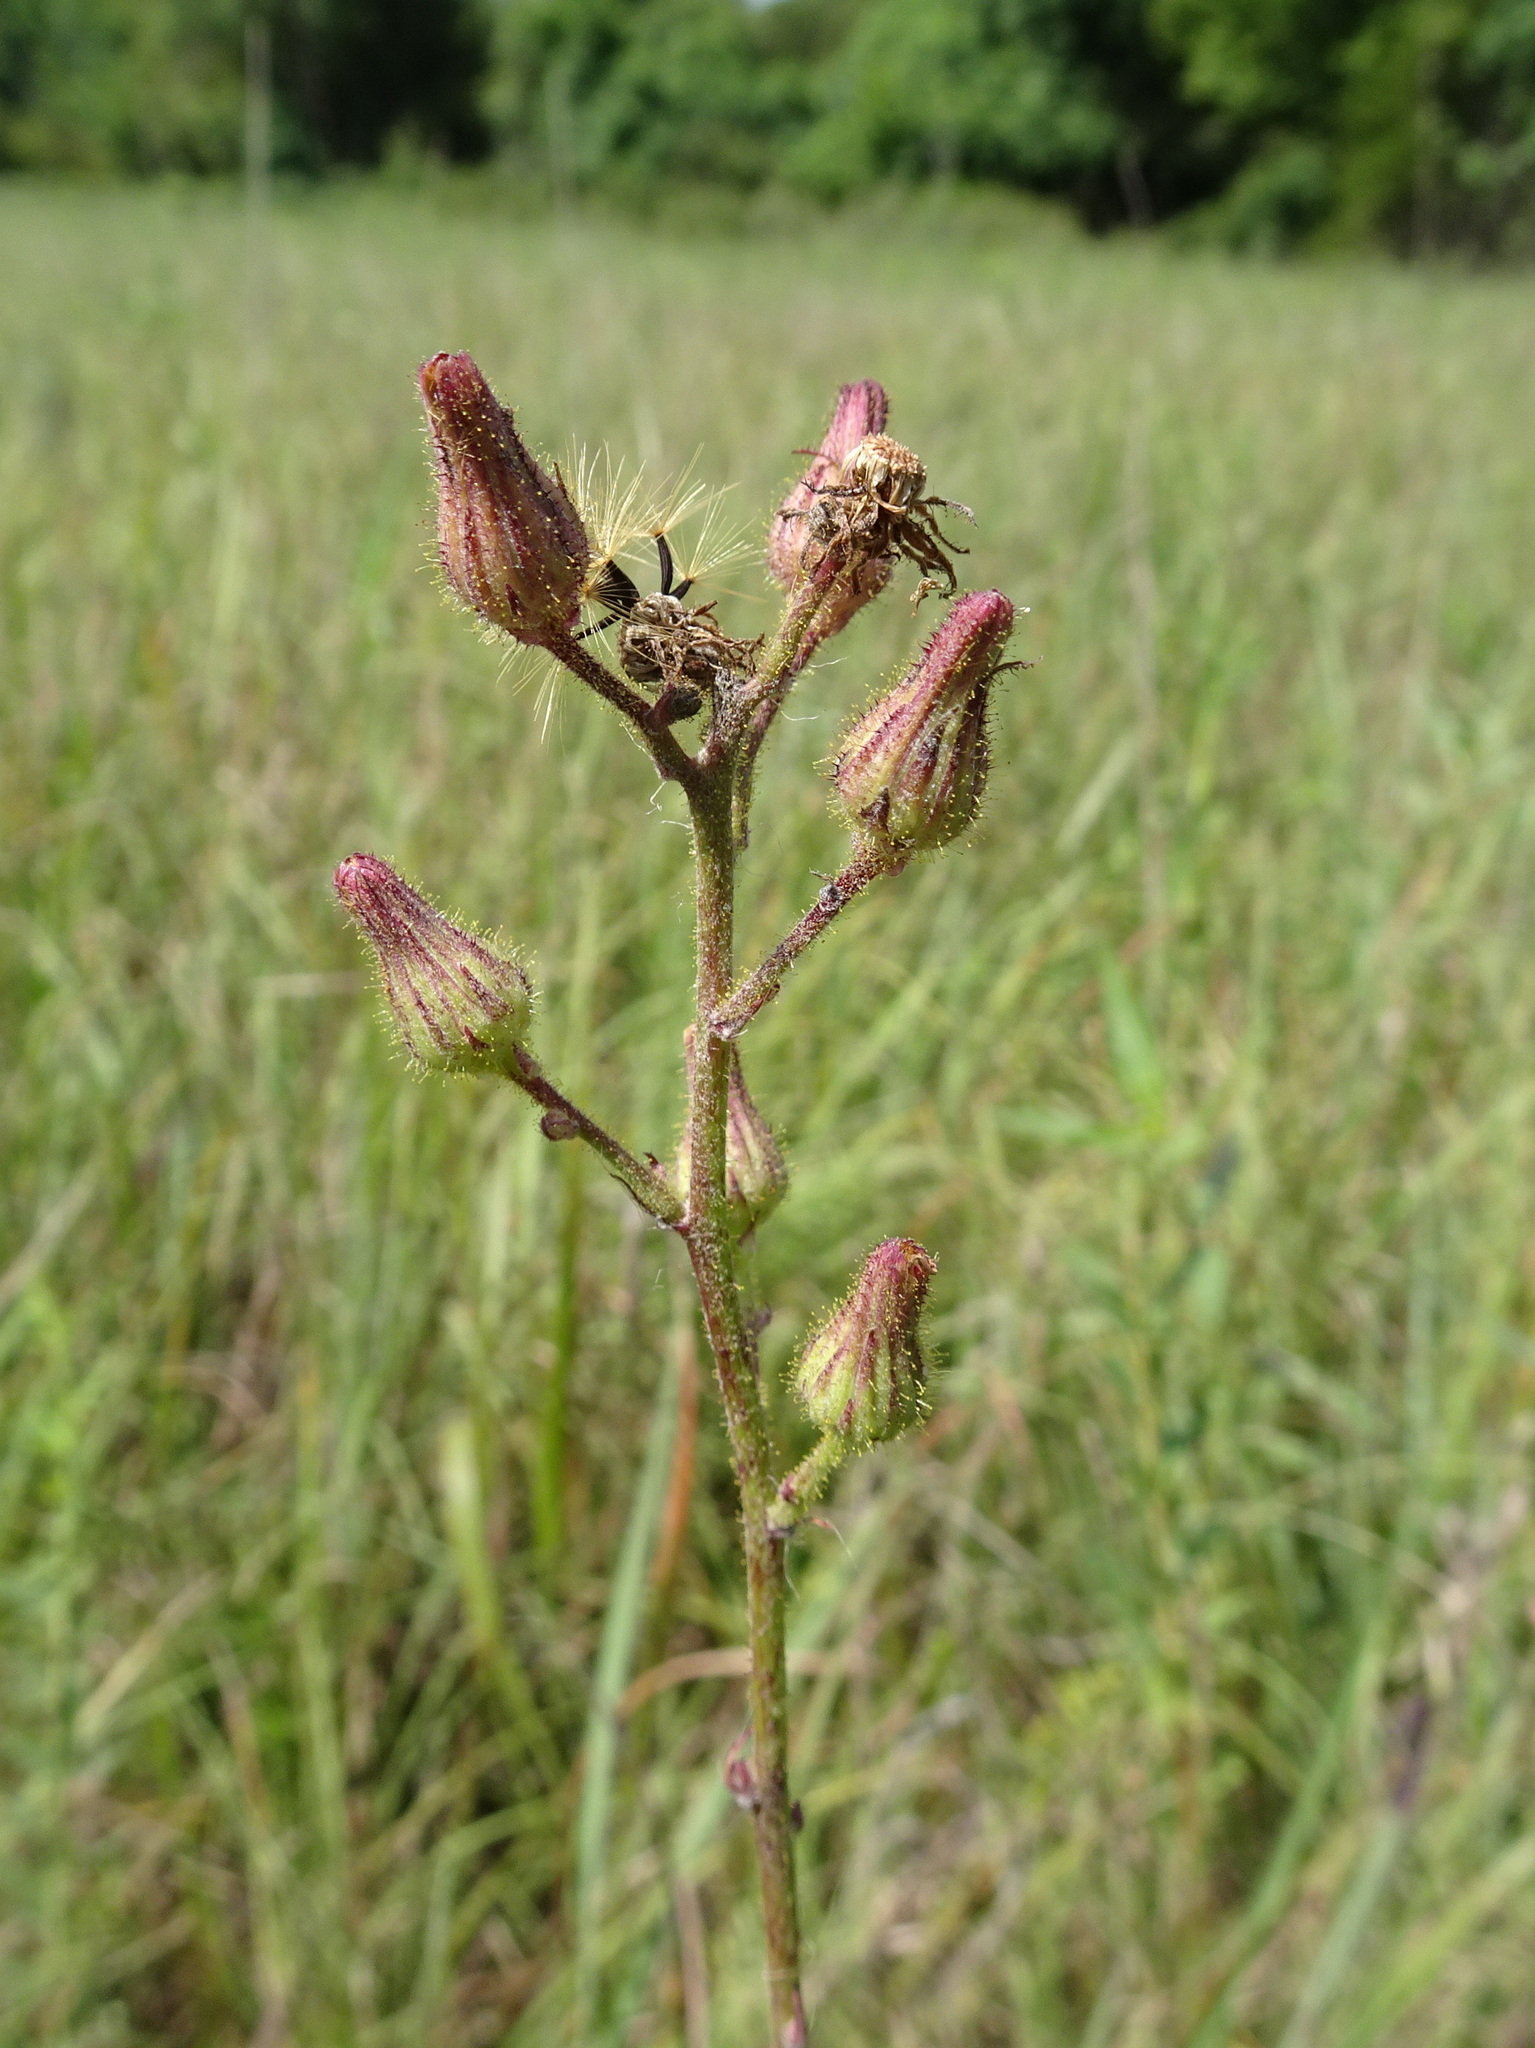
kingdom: Plantae
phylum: Tracheophyta
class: Magnoliopsida
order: Asterales
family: Asteraceae
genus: Hieracium
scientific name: Hieracium longipilum
